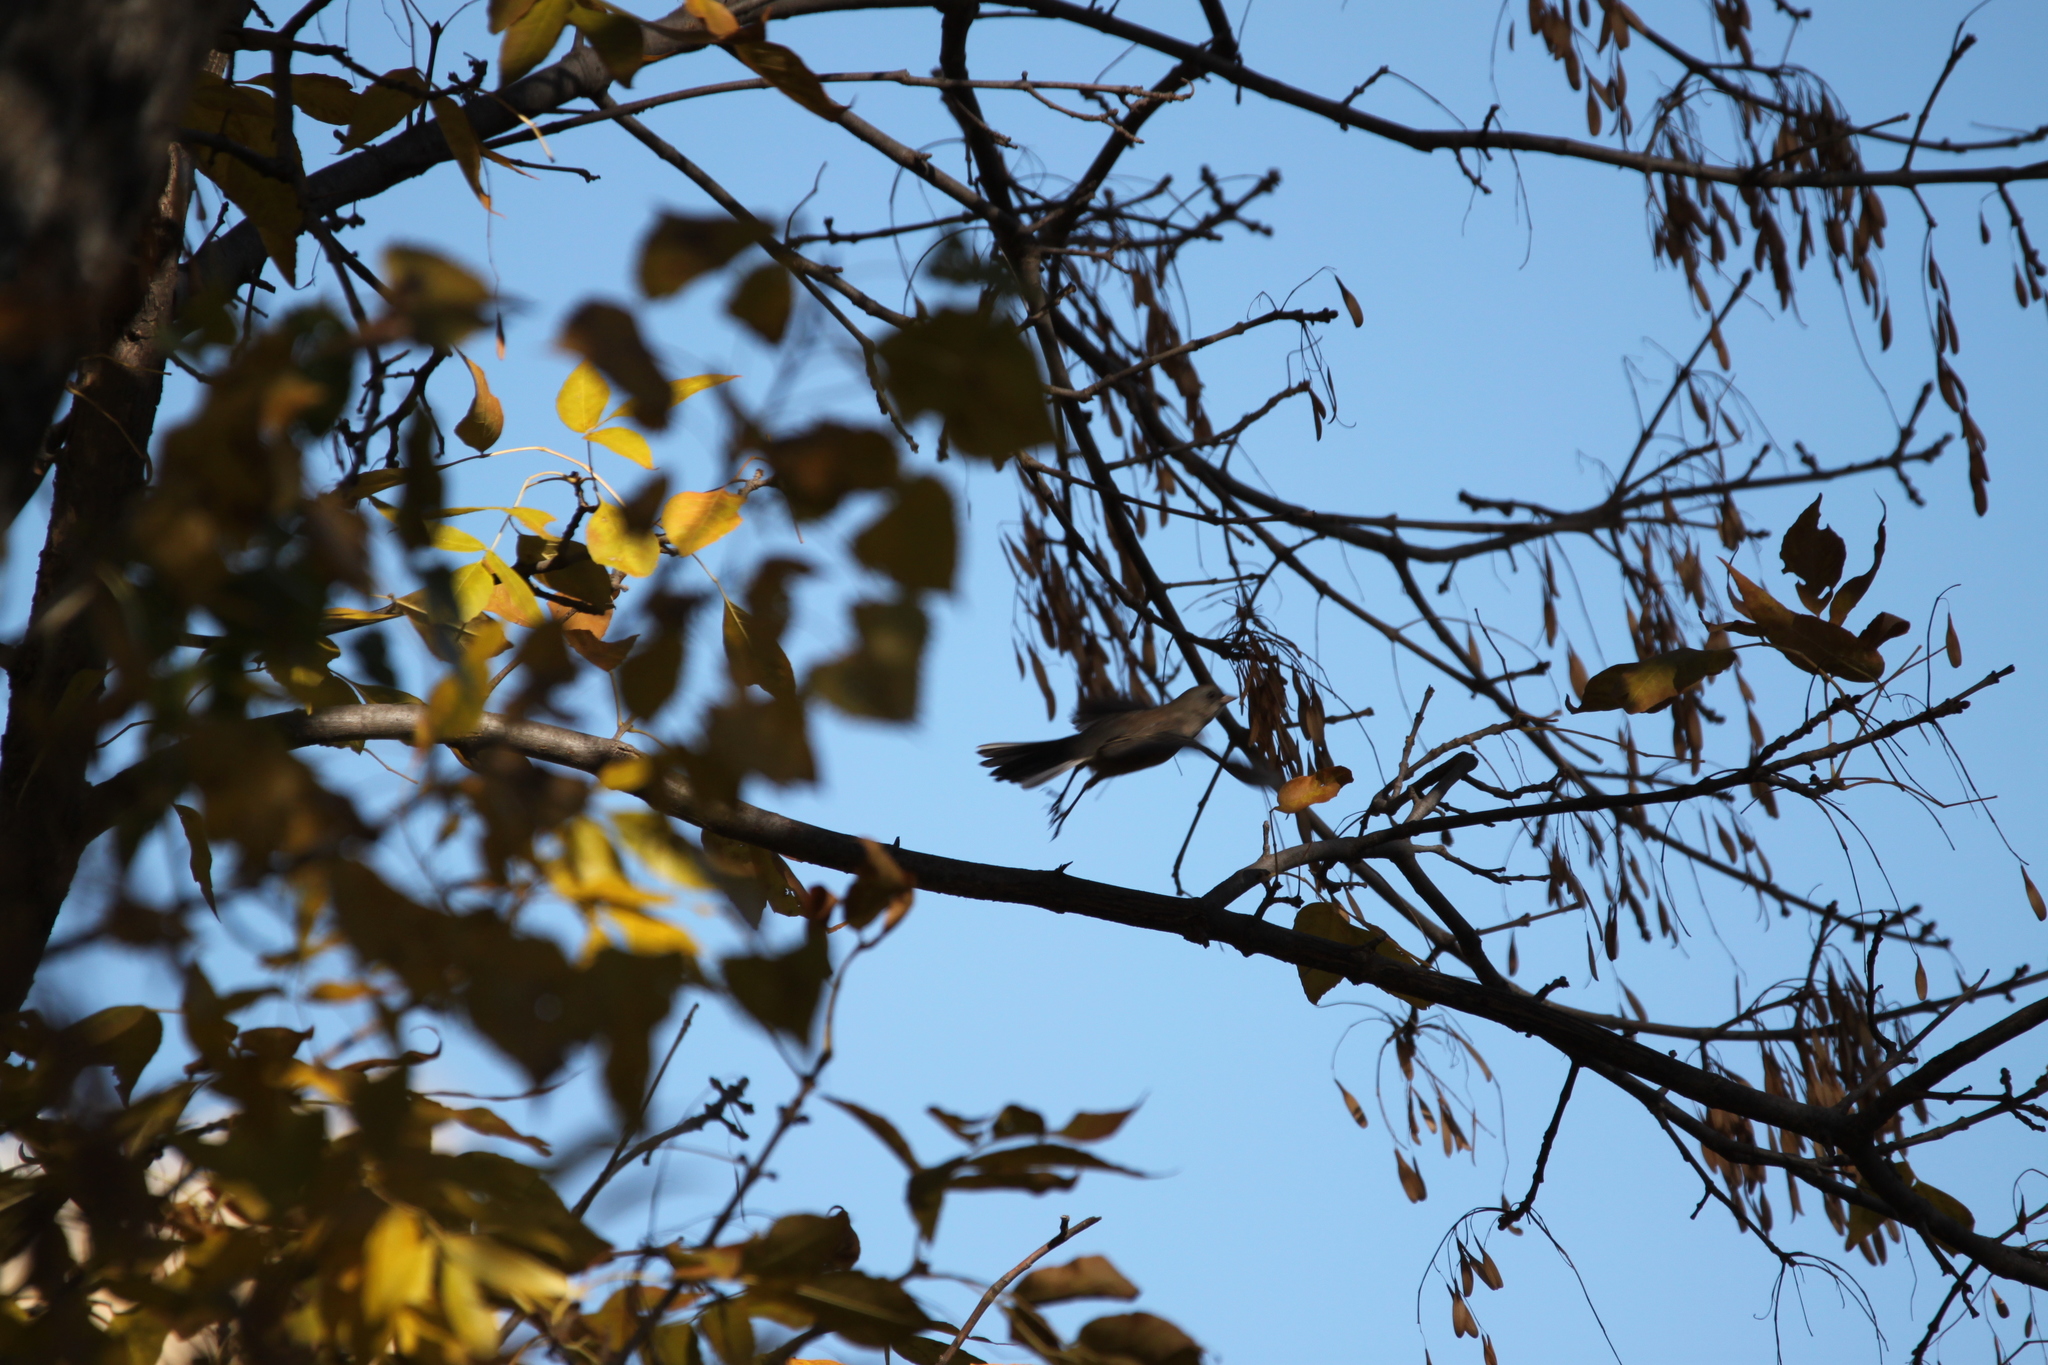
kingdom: Animalia
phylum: Chordata
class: Aves
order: Passeriformes
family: Passerellidae
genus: Junco
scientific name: Junco hyemalis
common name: Dark-eyed junco
